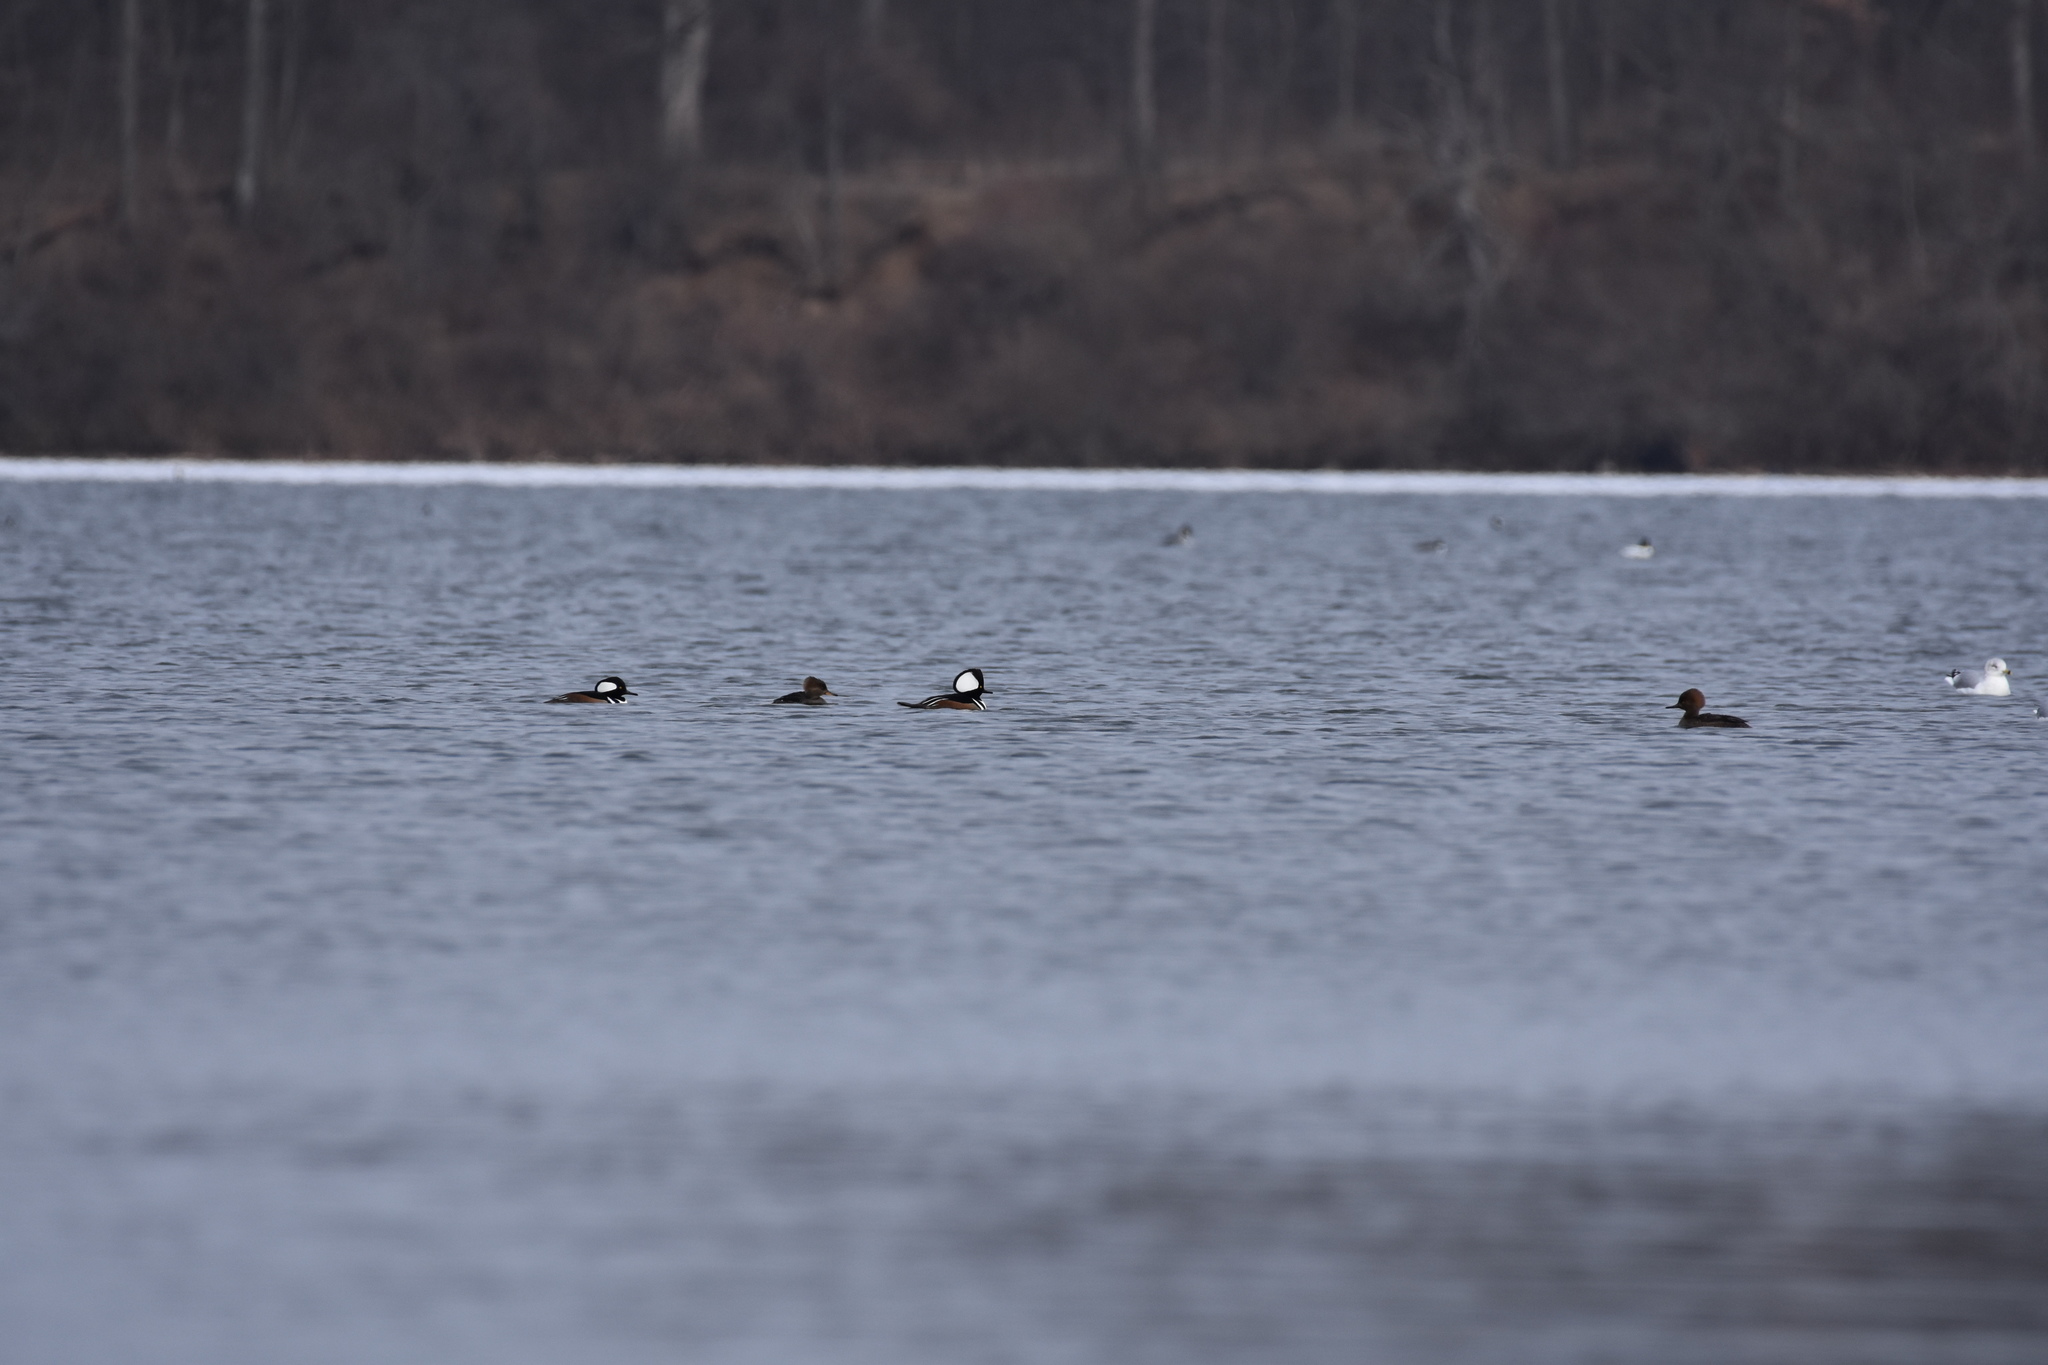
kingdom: Animalia
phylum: Chordata
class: Aves
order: Anseriformes
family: Anatidae
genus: Lophodytes
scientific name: Lophodytes cucullatus
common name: Hooded merganser
